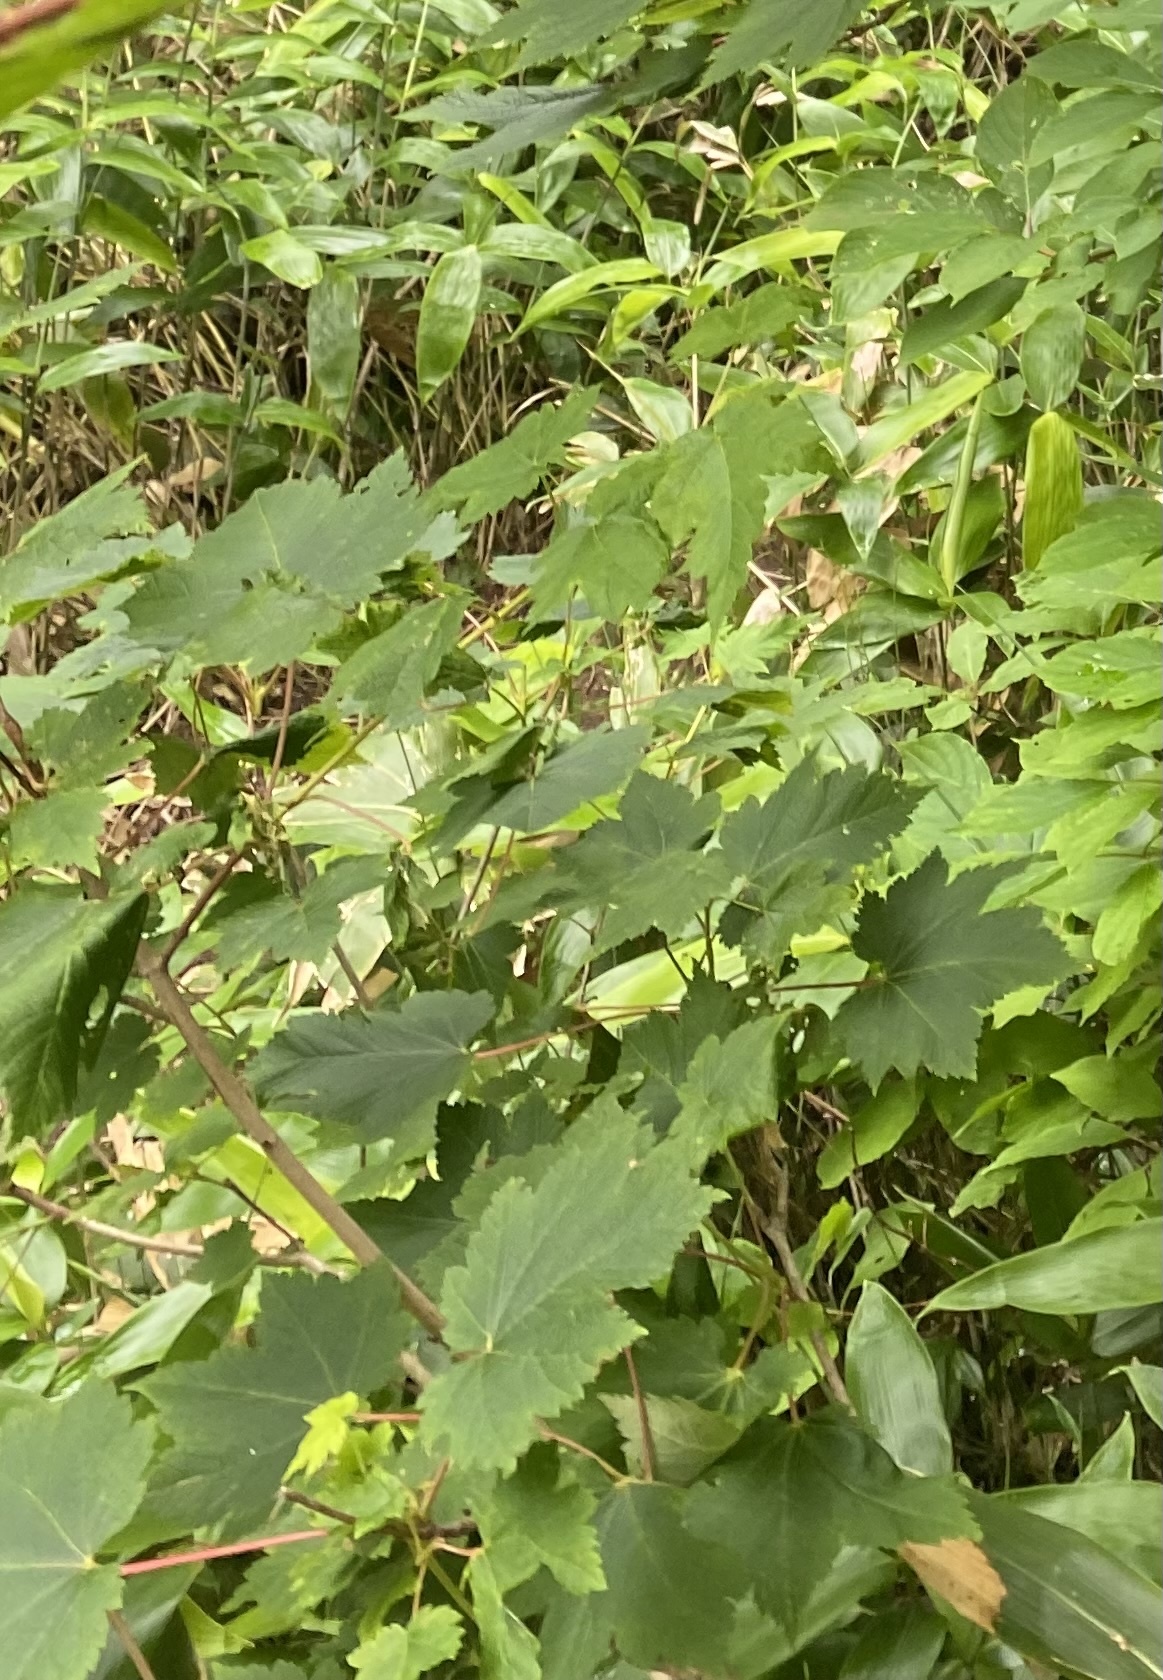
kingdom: Plantae
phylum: Tracheophyta
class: Magnoliopsida
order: Sapindales
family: Sapindaceae
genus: Acer
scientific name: Acer ukurunduense
